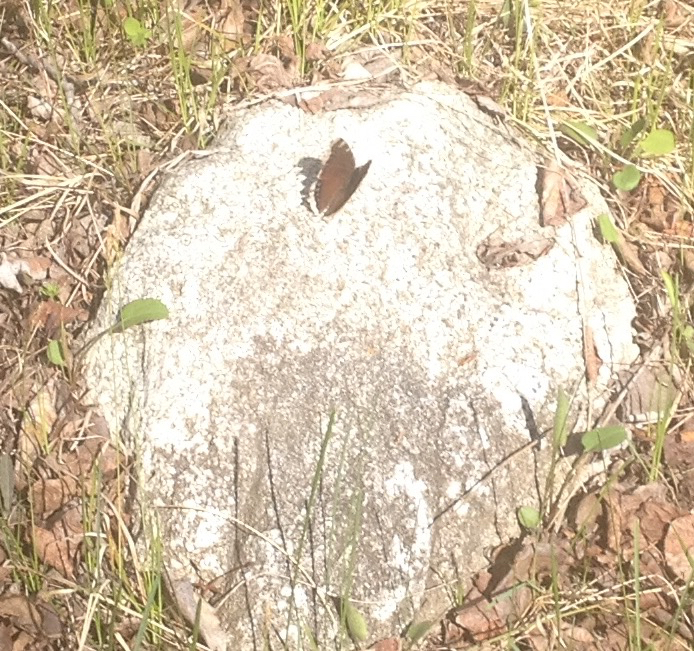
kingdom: Animalia
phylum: Arthropoda
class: Insecta
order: Lepidoptera
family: Nymphalidae
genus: Nymphalis
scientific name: Nymphalis antiopa
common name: Camberwell beauty
